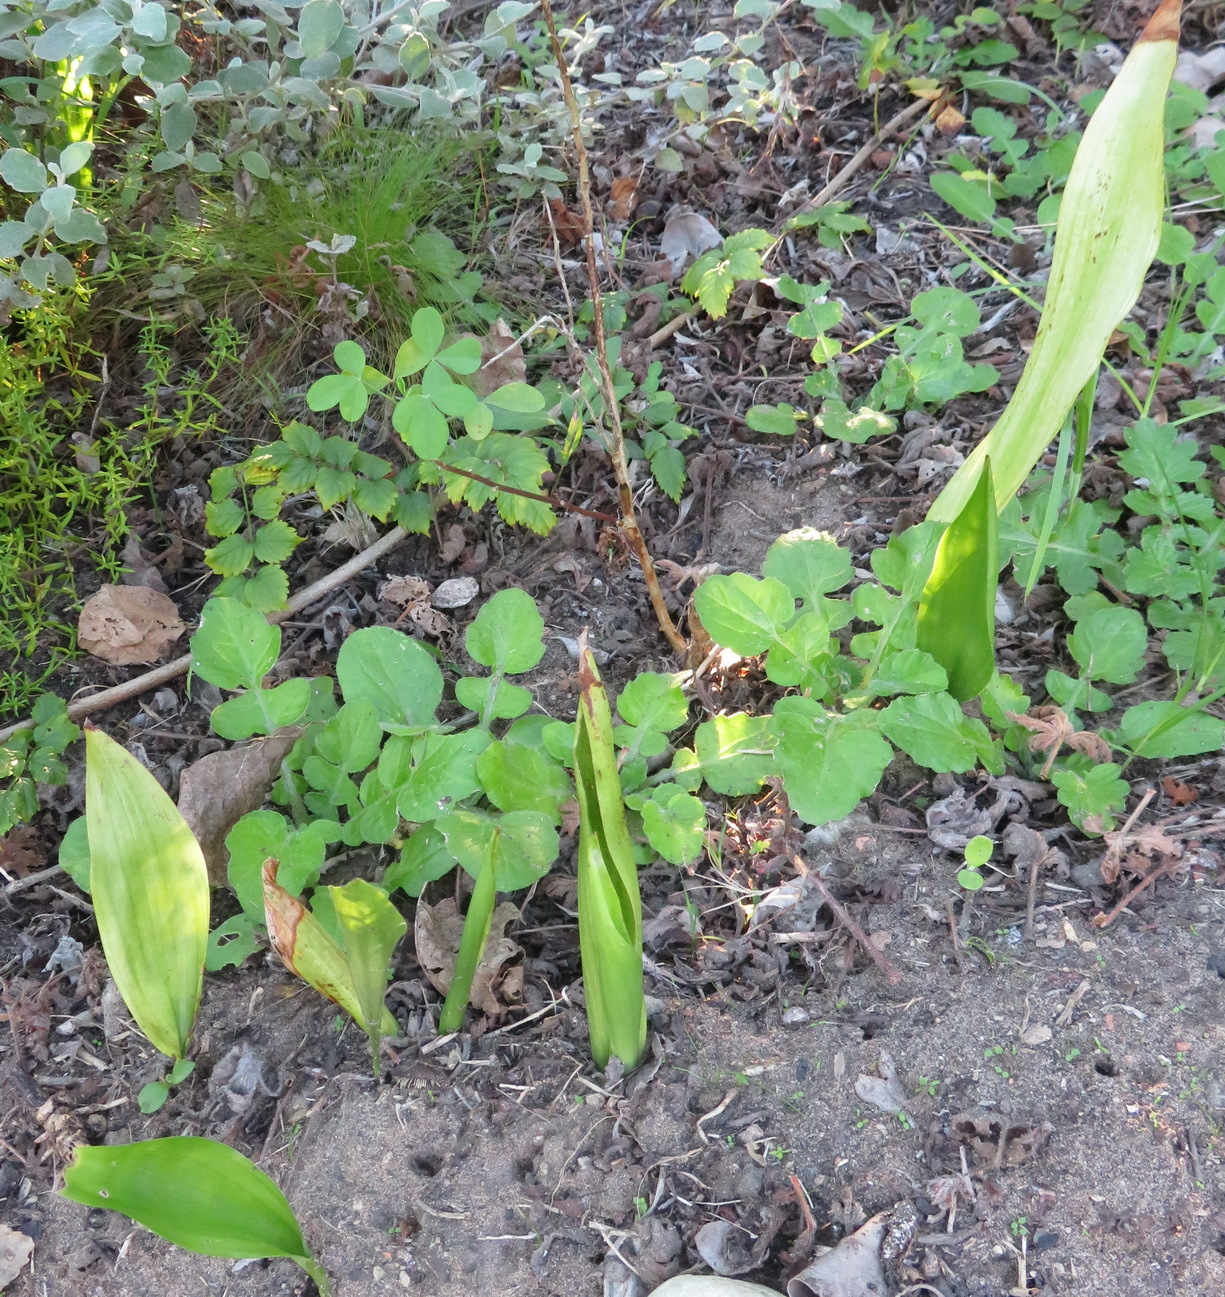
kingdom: Plantae
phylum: Tracheophyta
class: Liliopsida
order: Asparagales
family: Asparagaceae
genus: Aspidistra
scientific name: Aspidistra elatior
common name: Cast-iron-plant
